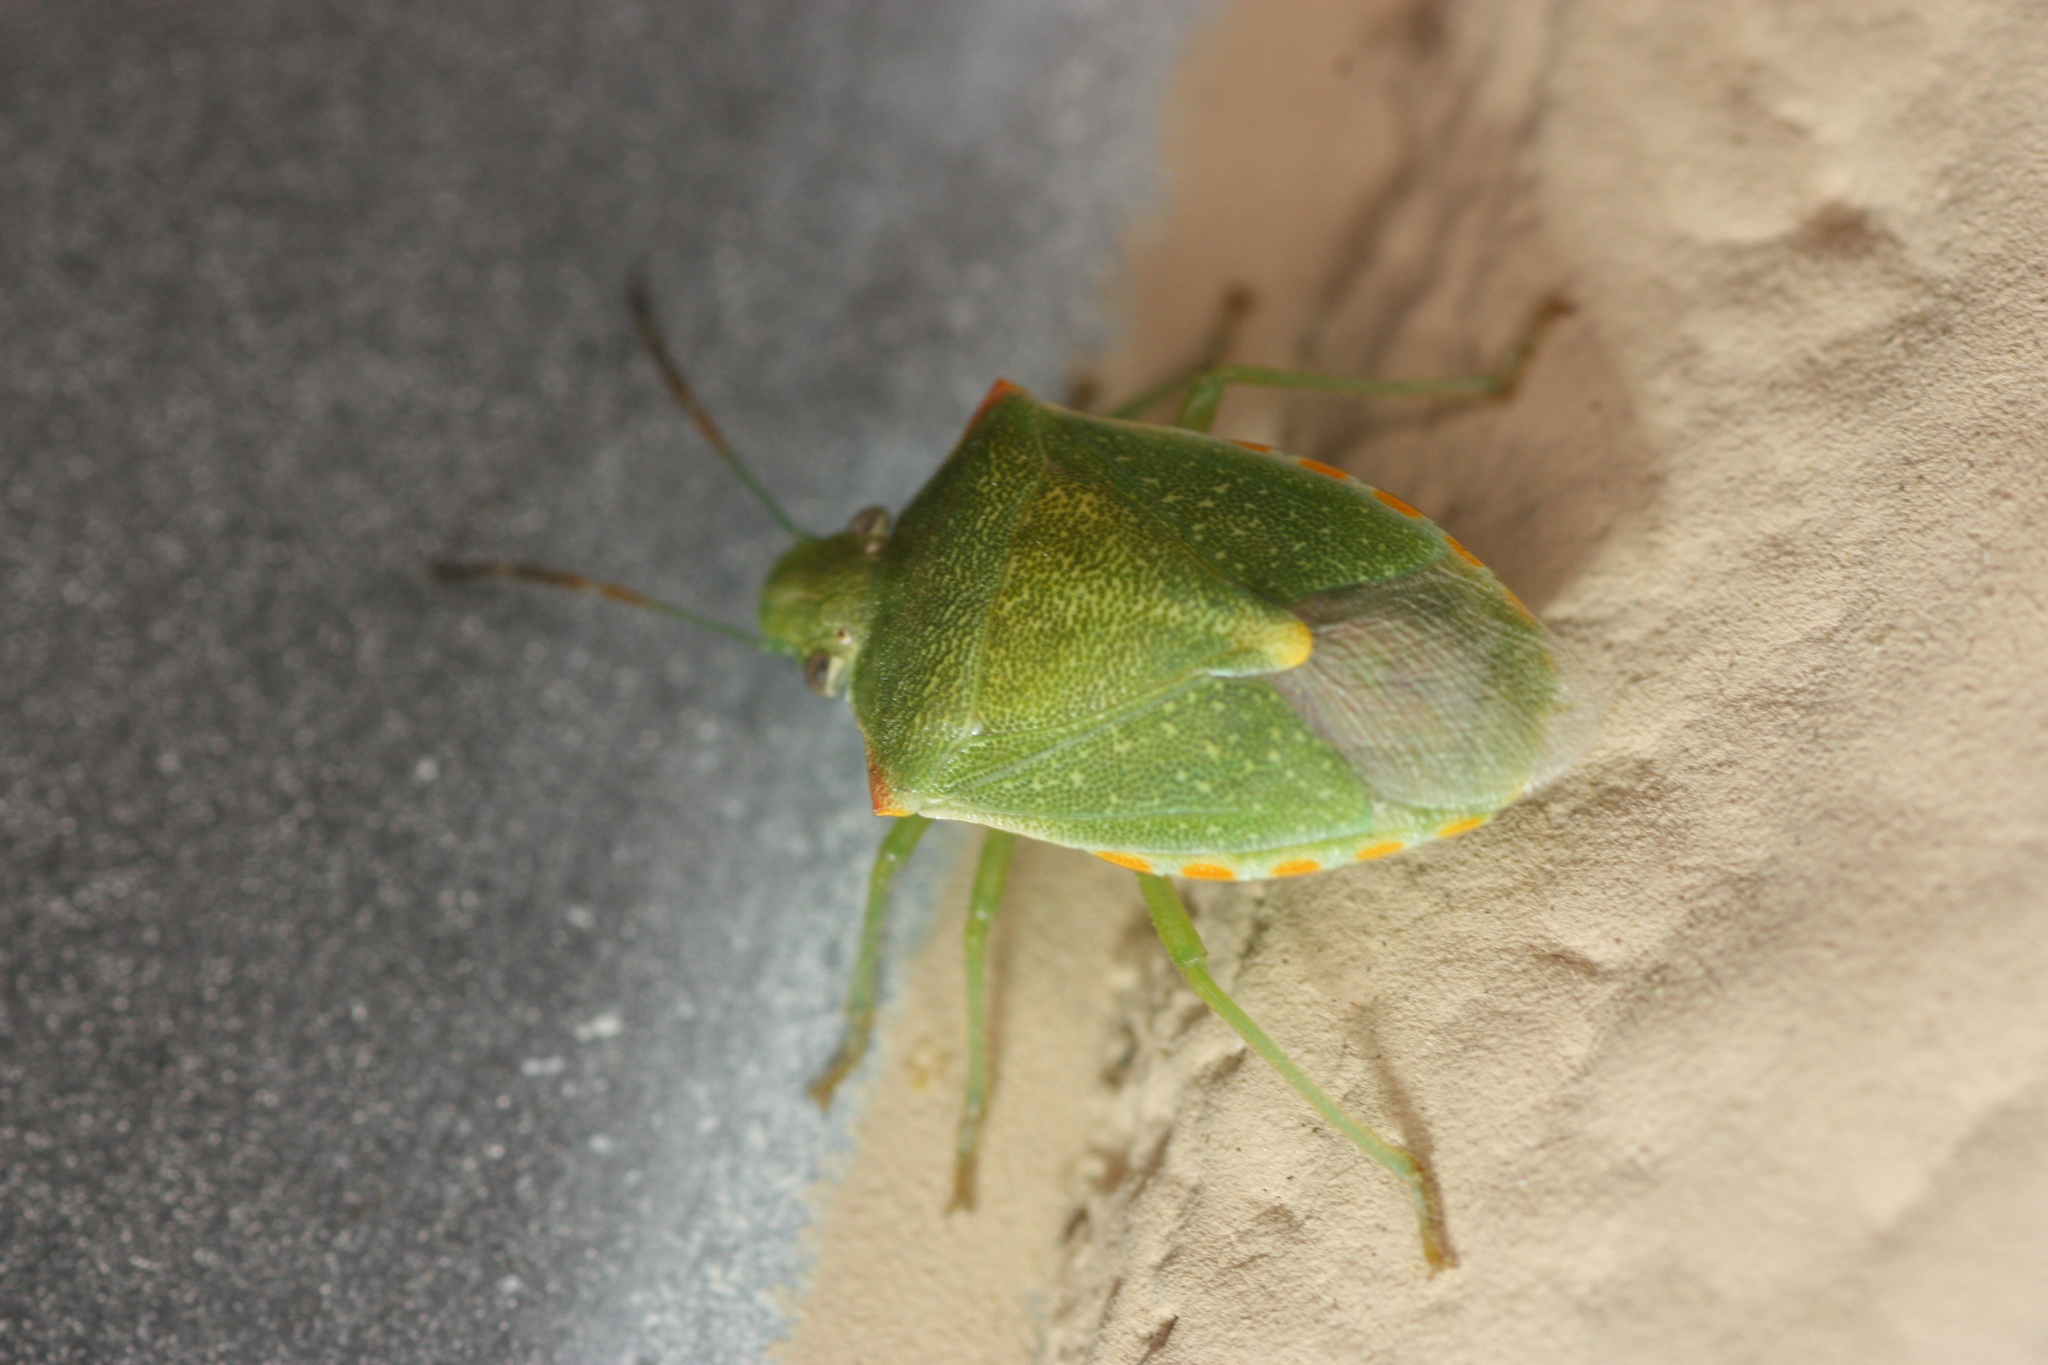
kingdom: Animalia
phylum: Arthropoda
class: Insecta
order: Hemiptera
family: Pentatomidae
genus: Thyanta
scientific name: Thyanta accerra
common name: Stink bug
